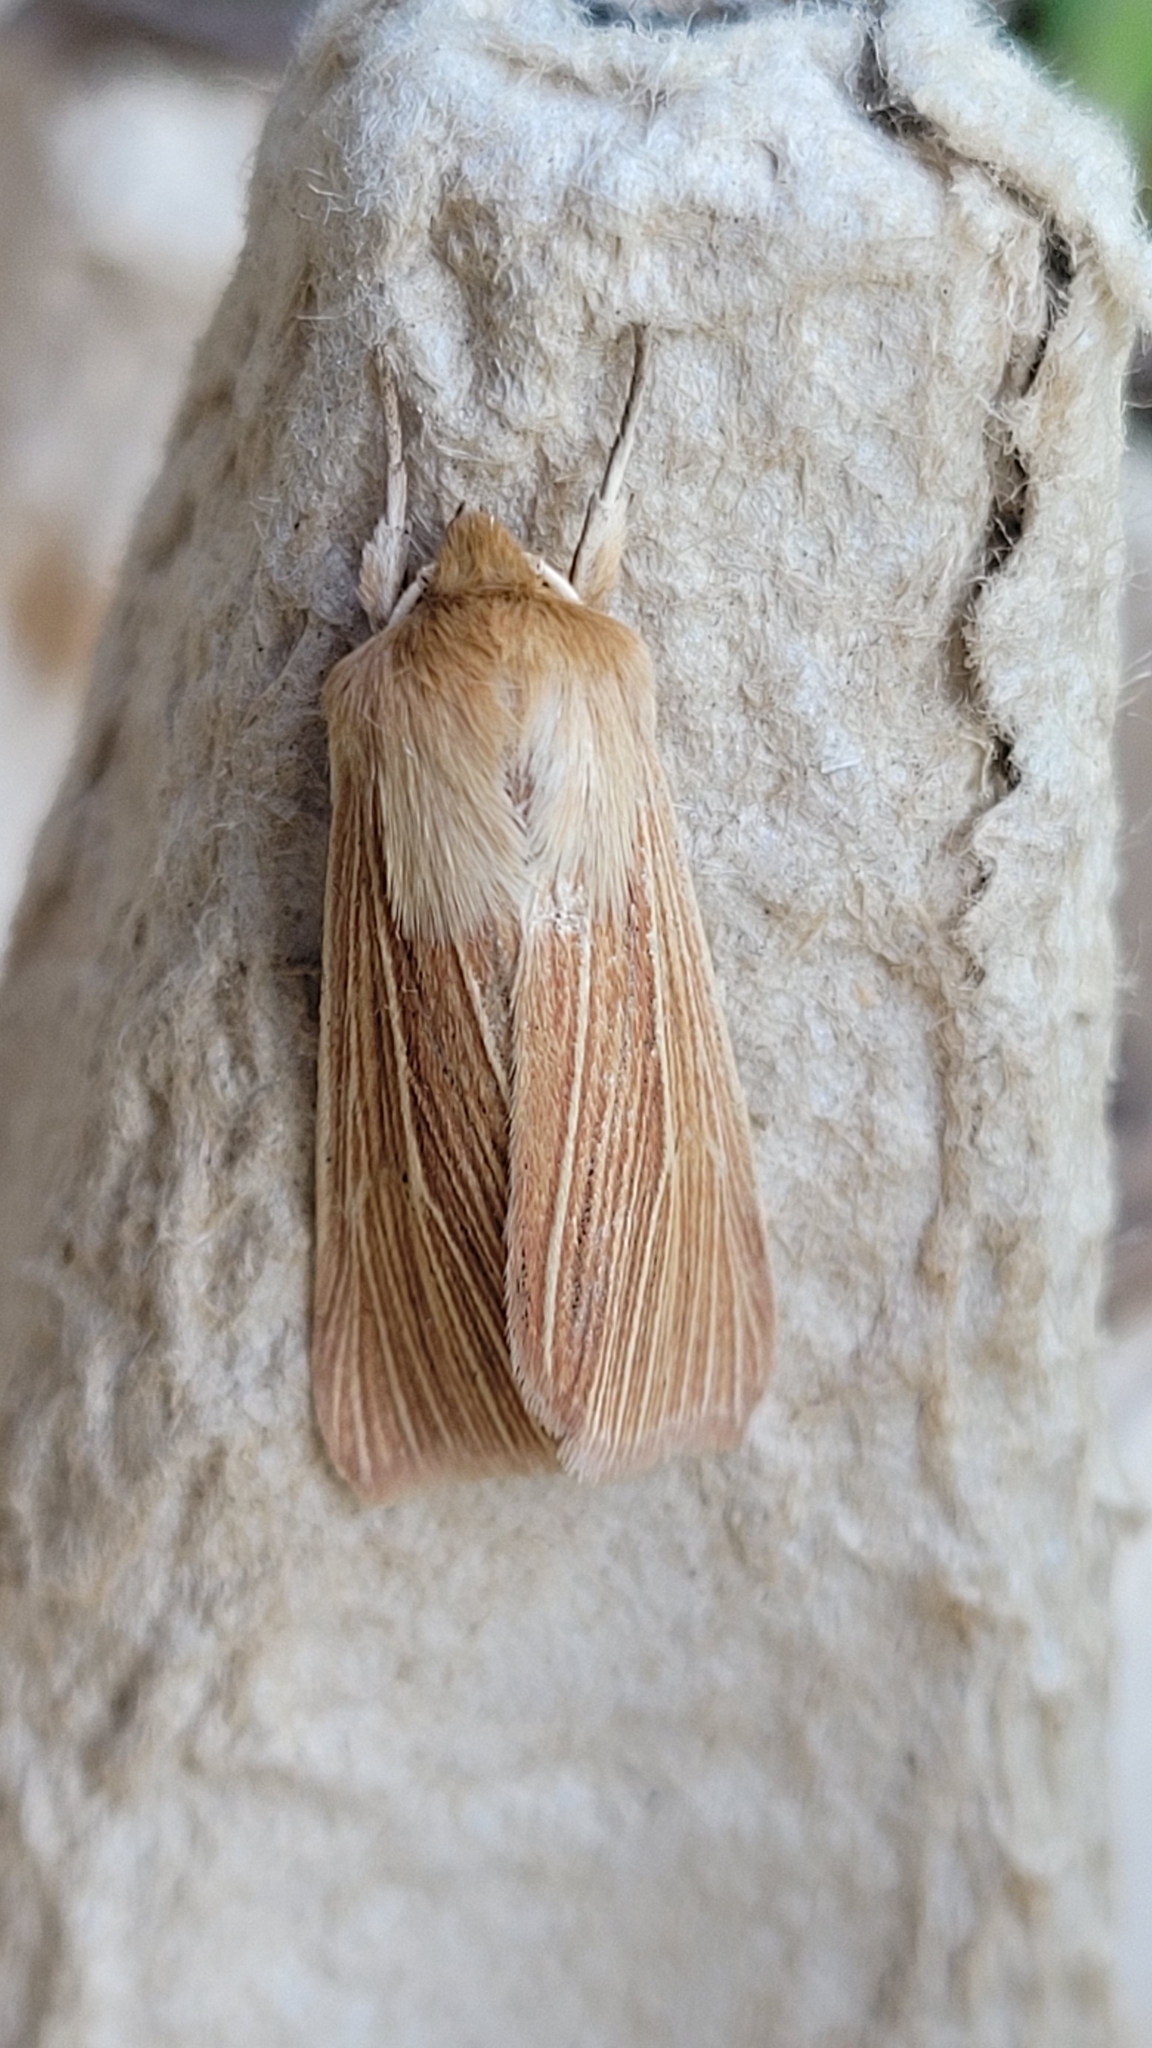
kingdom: Animalia
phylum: Arthropoda
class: Insecta
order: Lepidoptera
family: Noctuidae
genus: Mythimna
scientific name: Mythimna pallens
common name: Common wainscot
